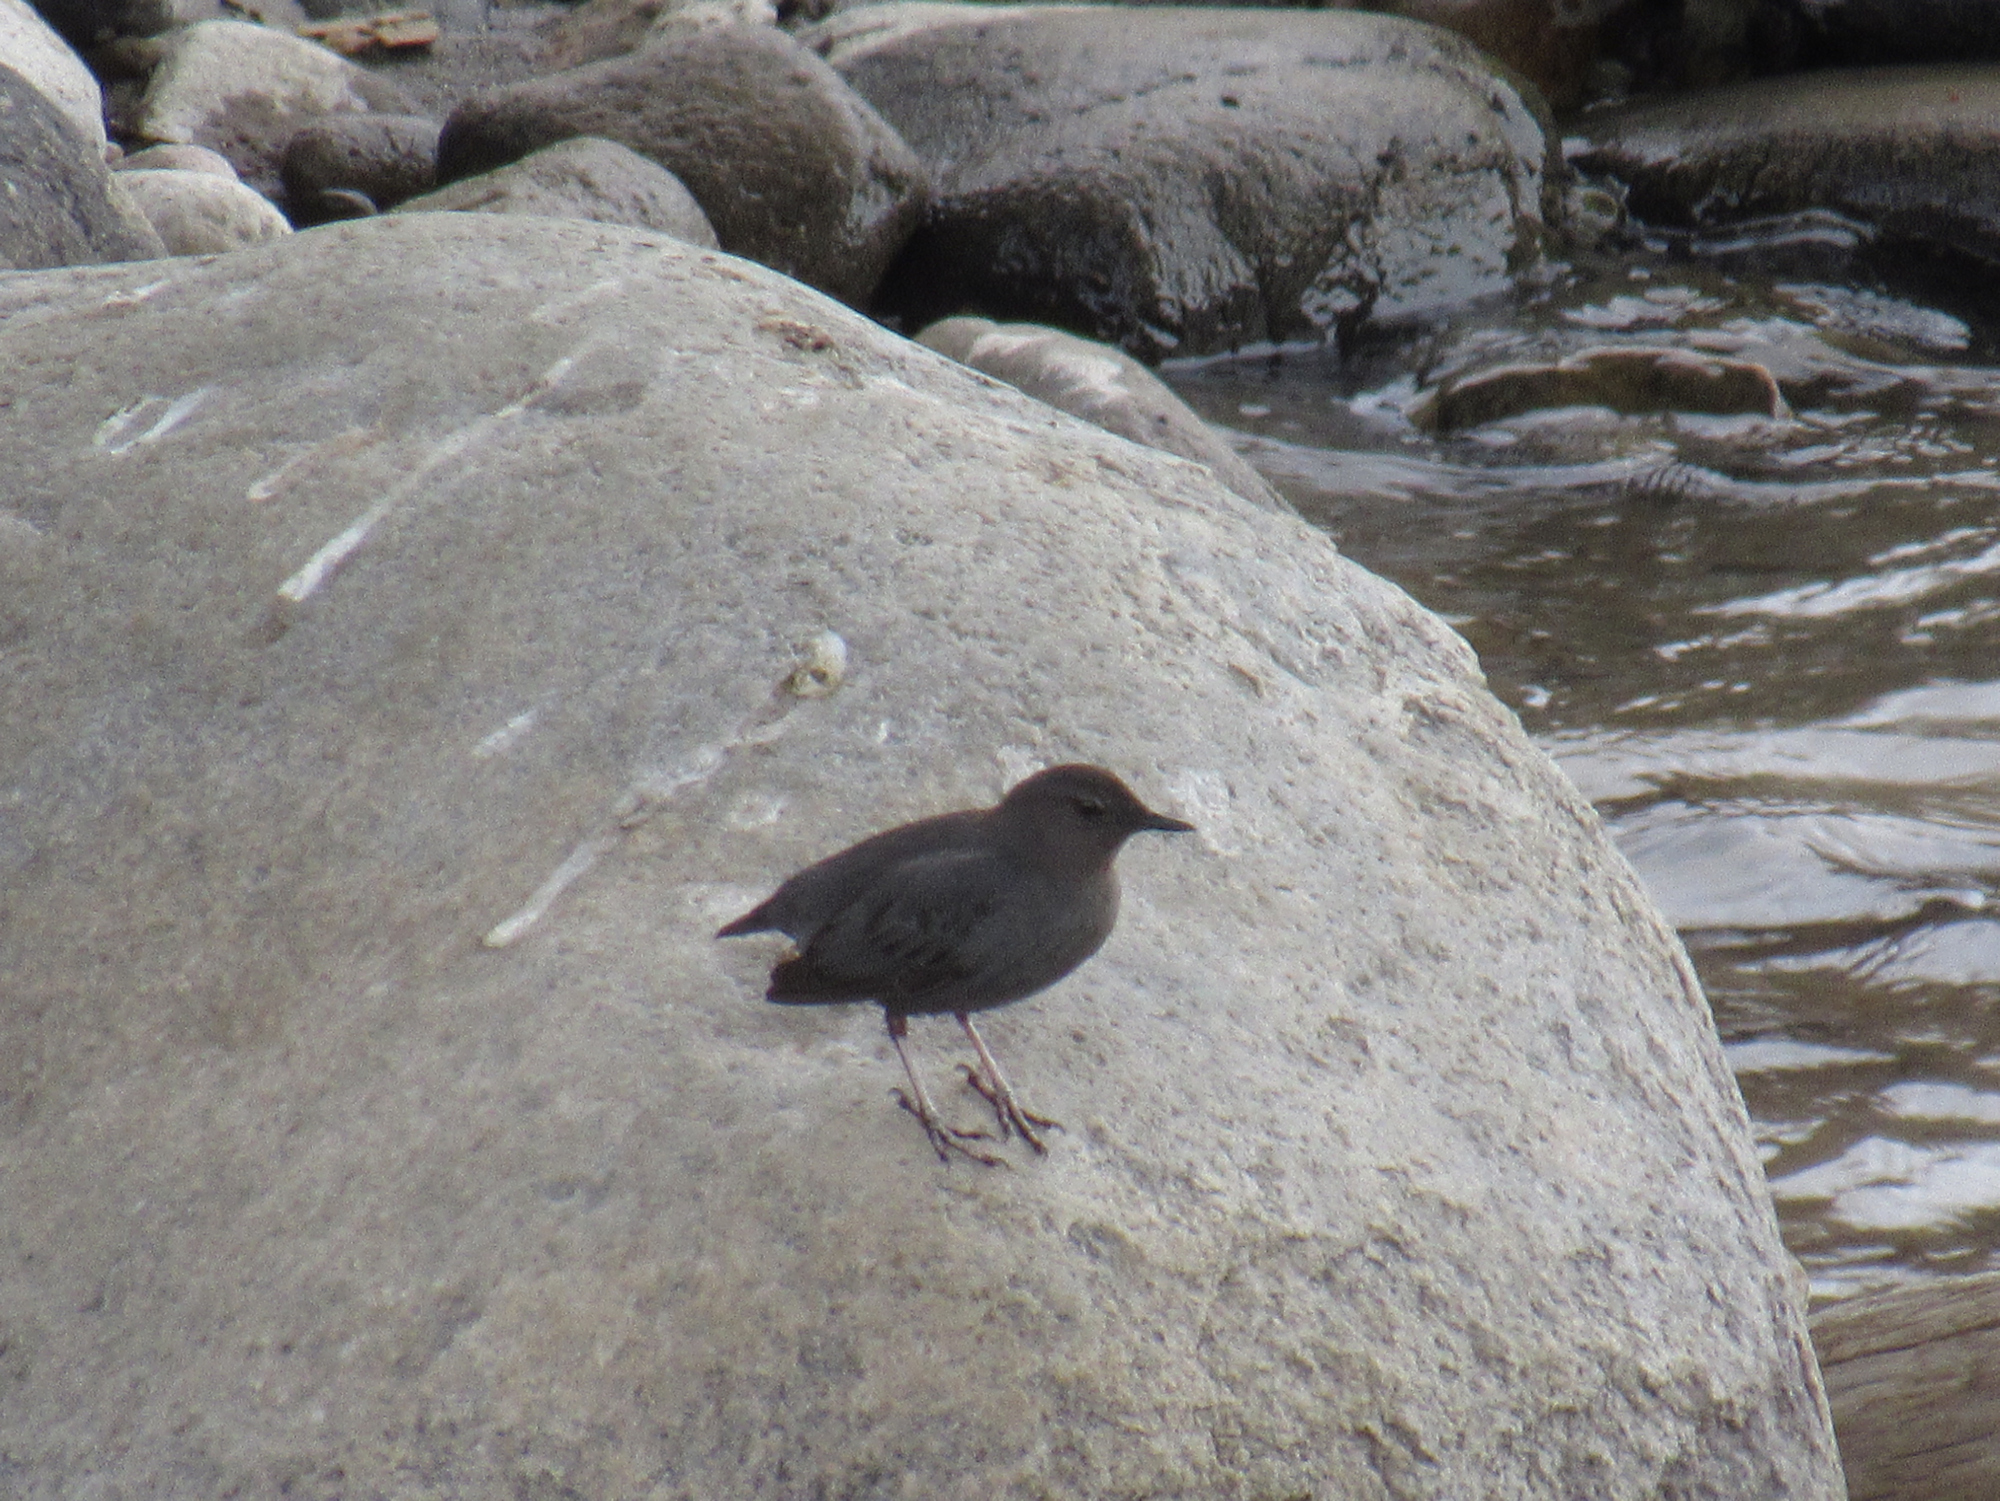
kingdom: Animalia
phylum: Chordata
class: Aves
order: Passeriformes
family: Cinclidae
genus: Cinclus
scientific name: Cinclus mexicanus
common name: American dipper
